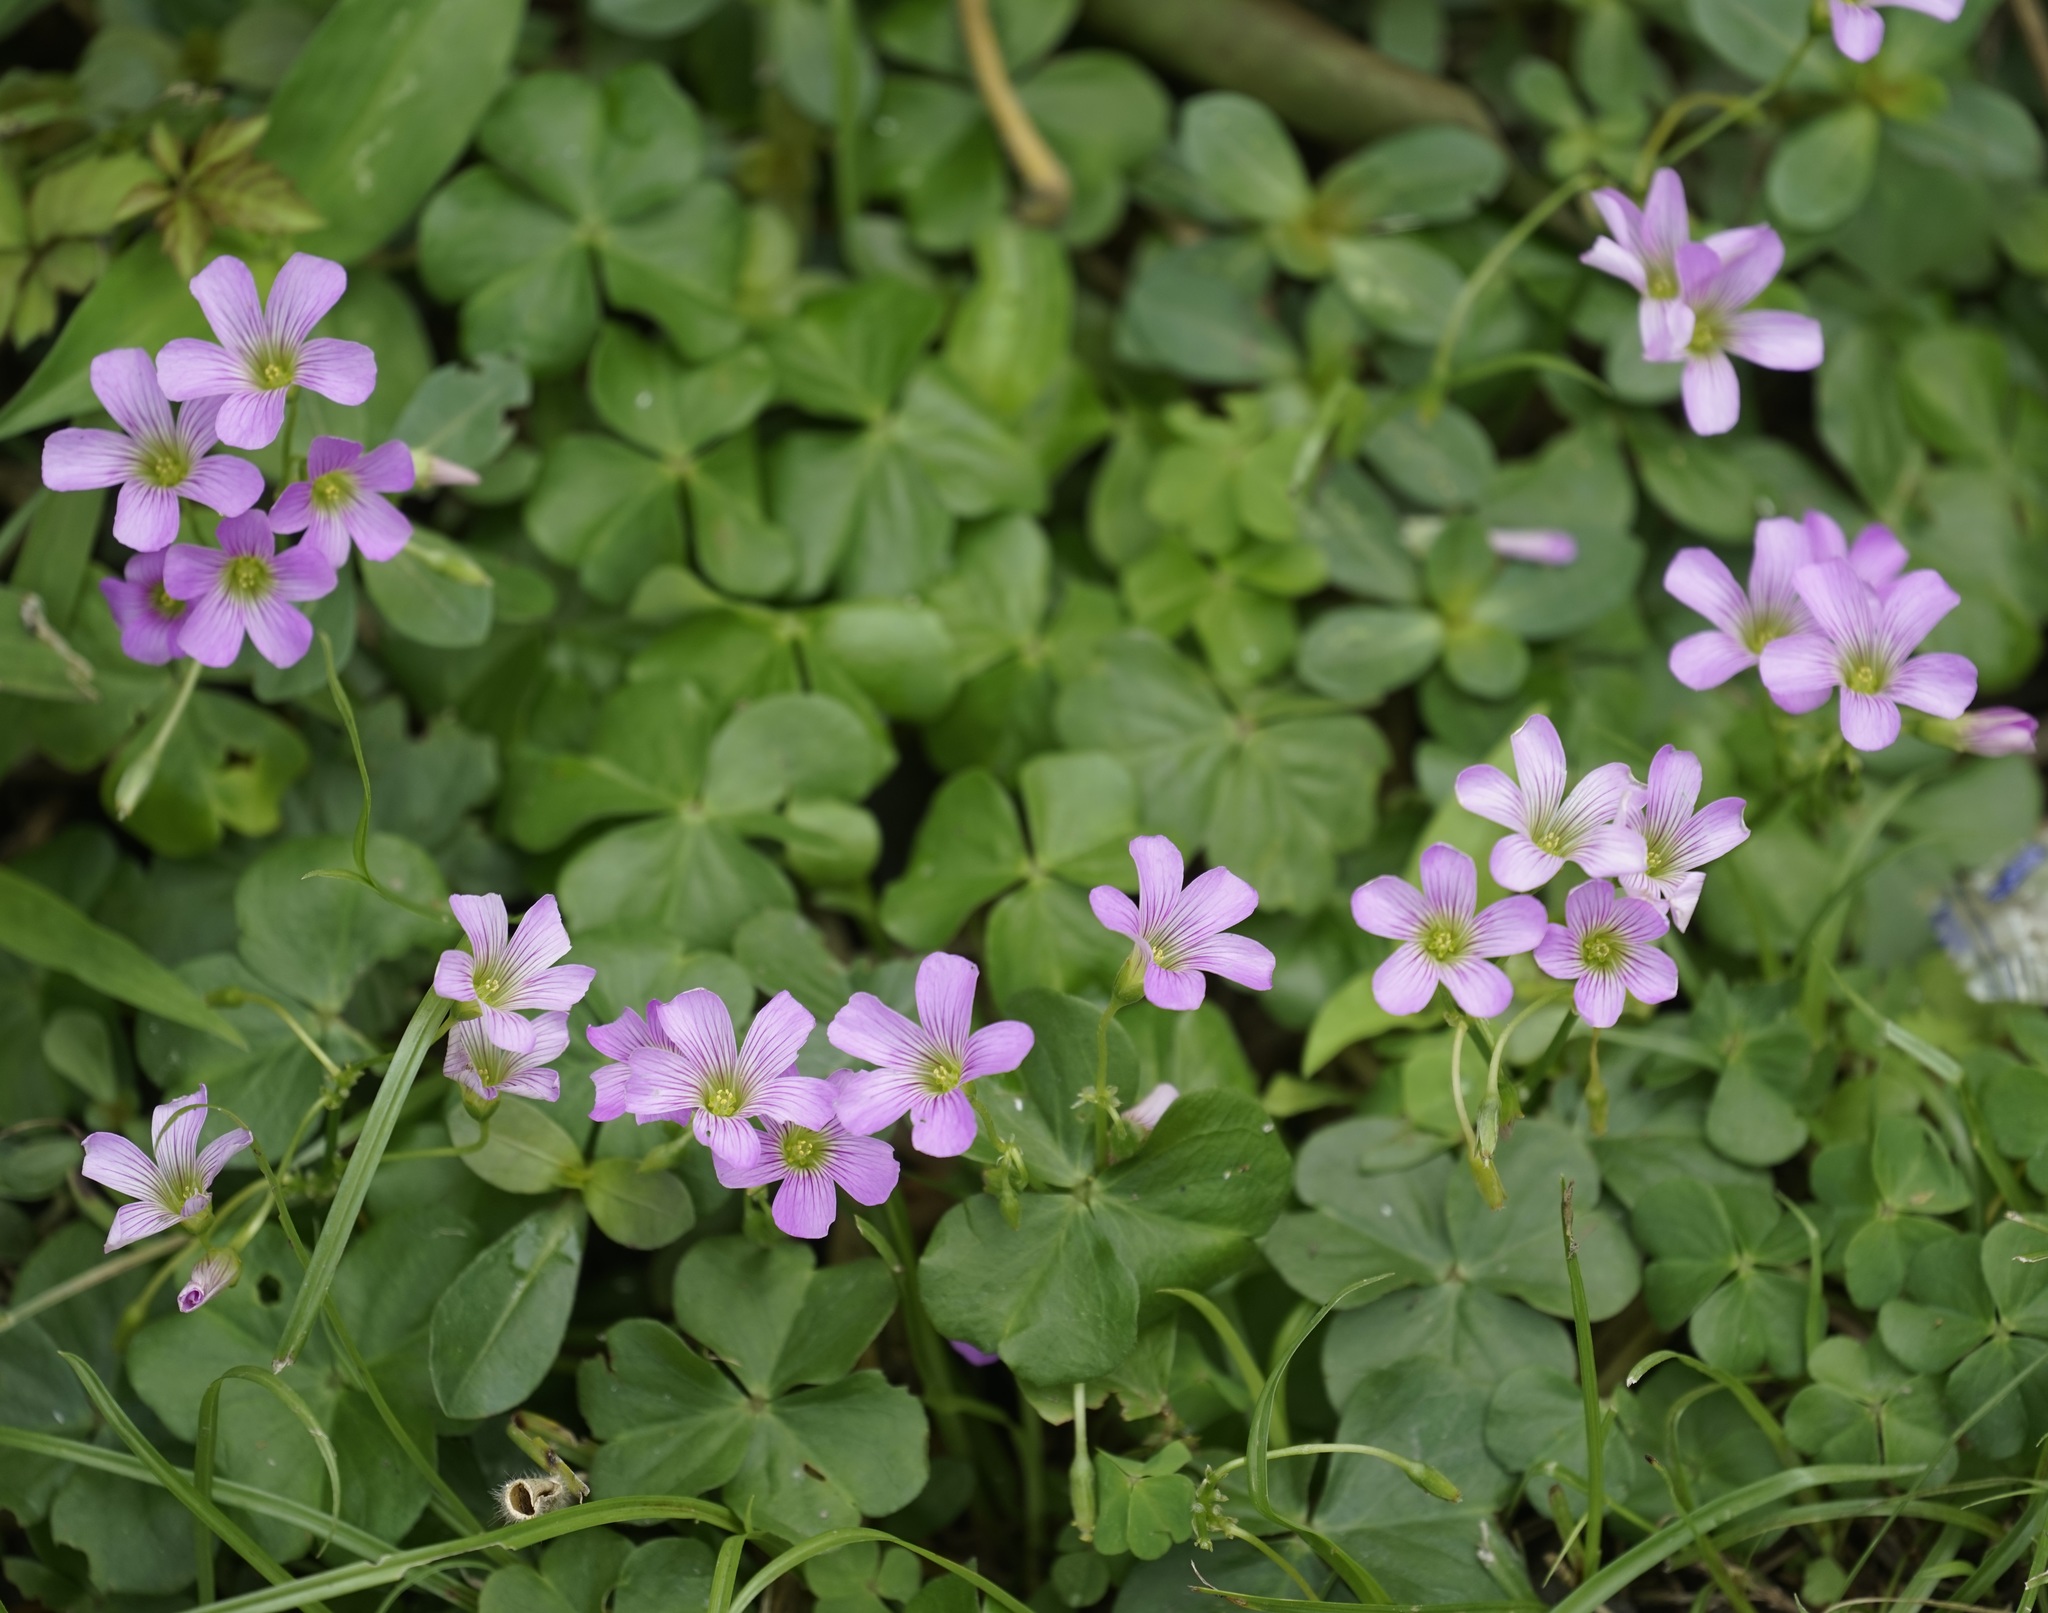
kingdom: Plantae
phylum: Tracheophyta
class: Magnoliopsida
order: Oxalidales
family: Oxalidaceae
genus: Oxalis
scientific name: Oxalis debilis
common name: Large-flowered pink-sorrel
